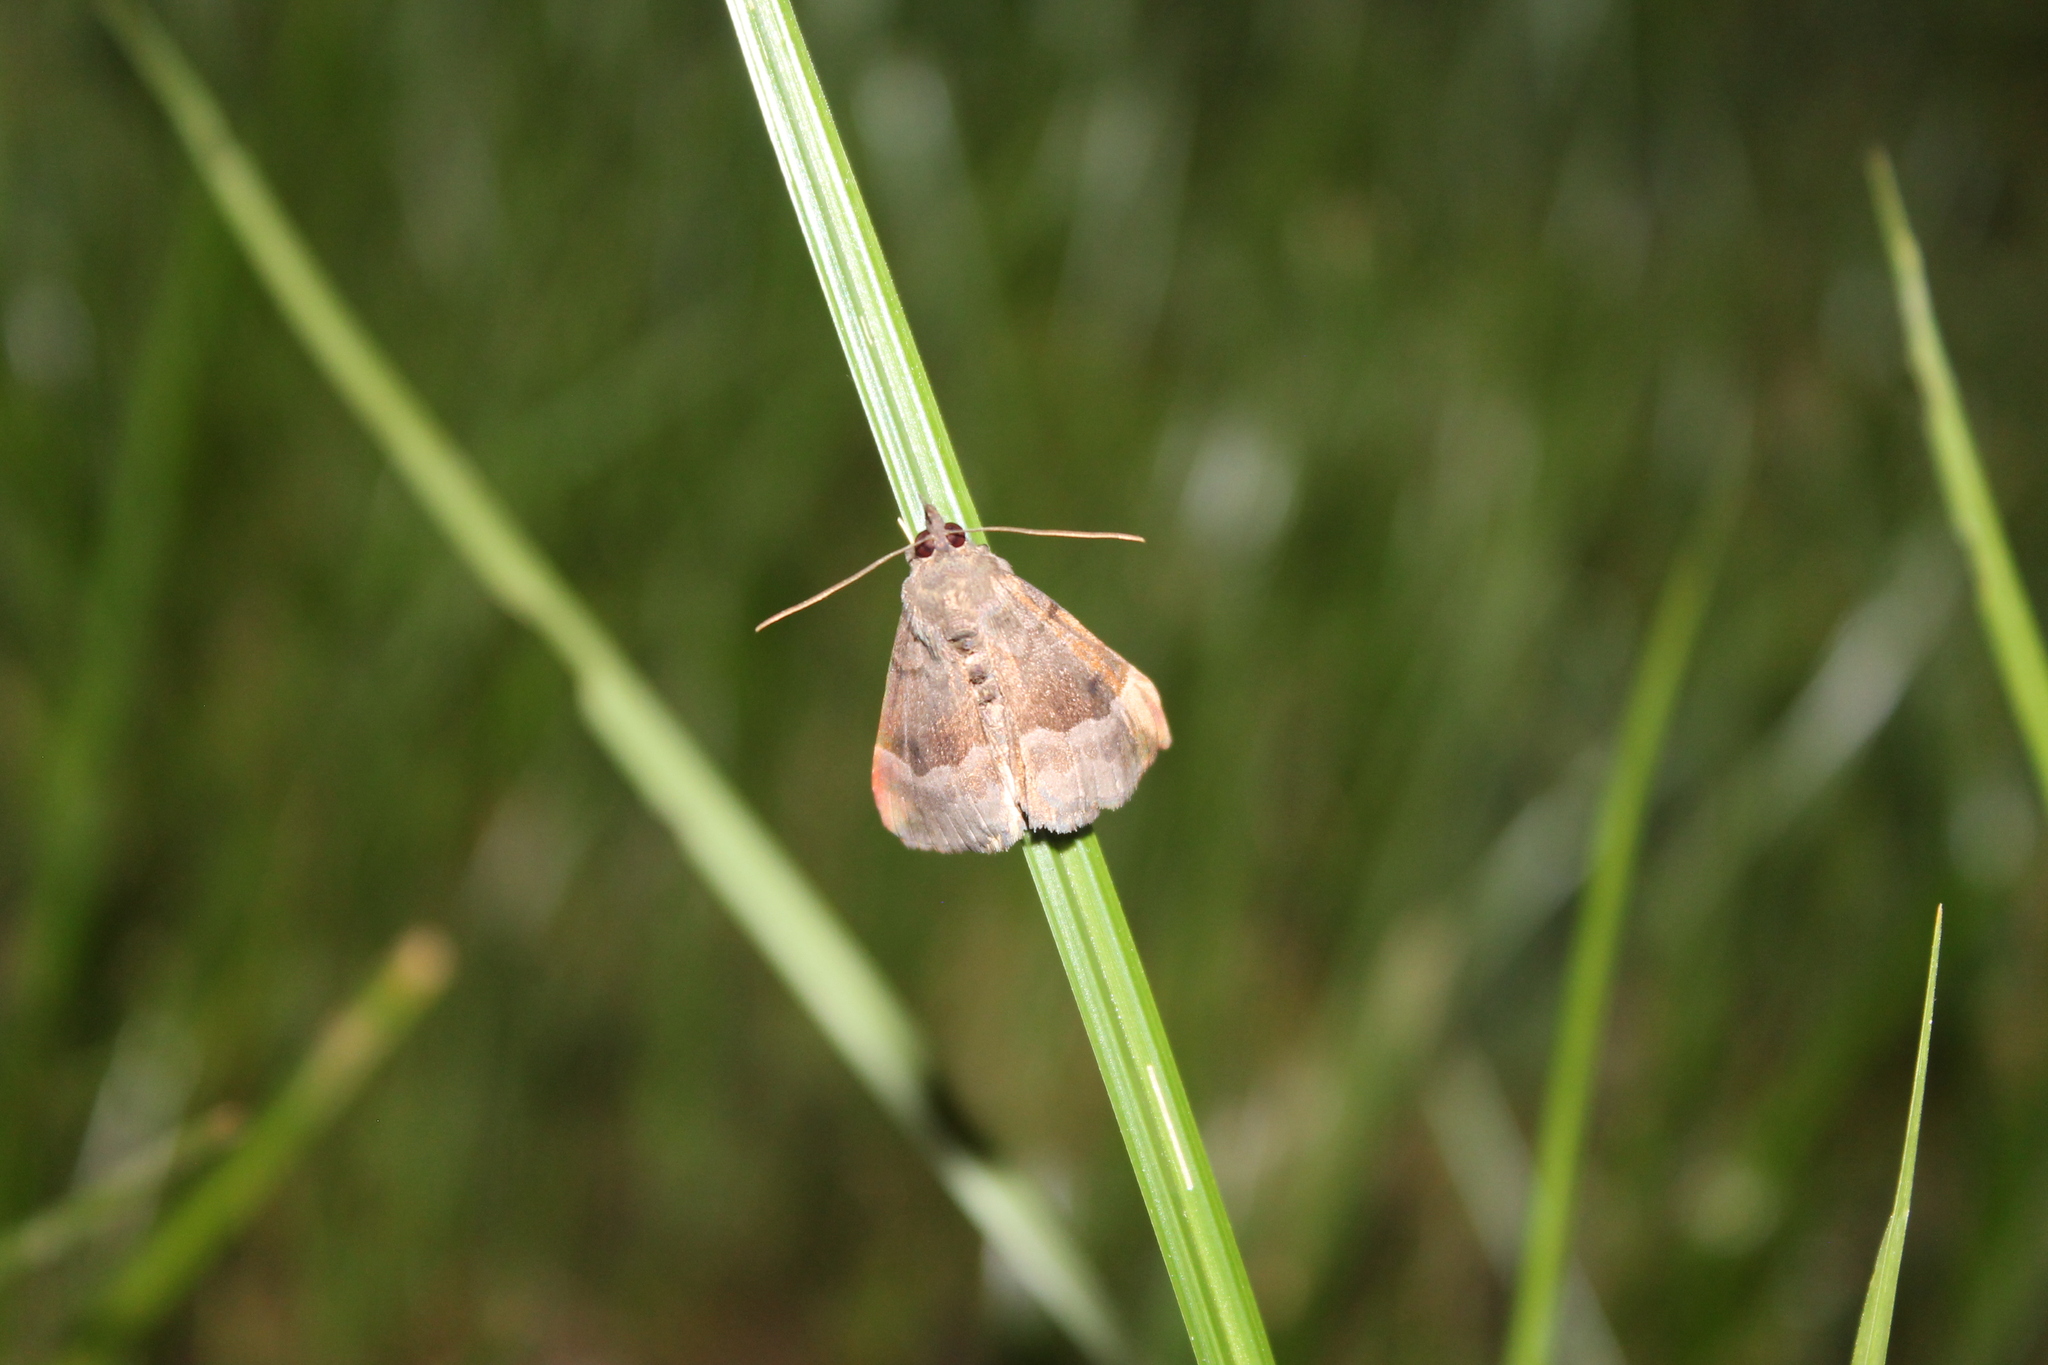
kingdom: Animalia
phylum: Arthropoda
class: Insecta
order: Lepidoptera
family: Erebidae
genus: Hypena
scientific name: Hypena madefactalis
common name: Gray-edged snout
